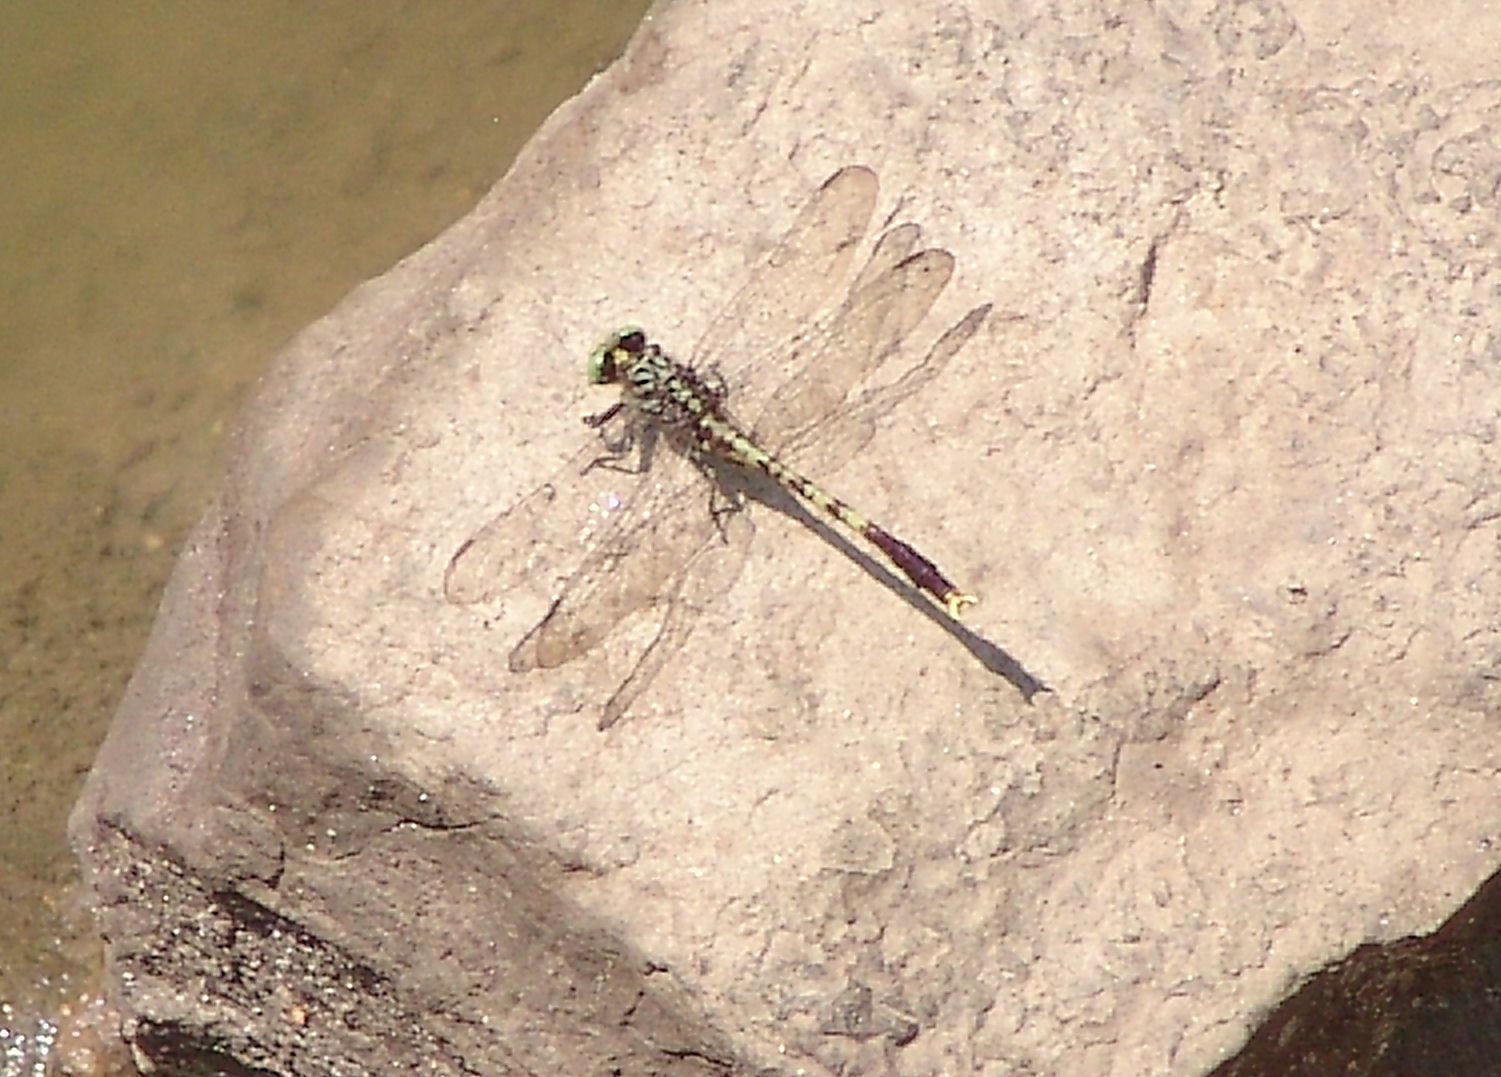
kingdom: Animalia
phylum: Arthropoda
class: Insecta
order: Odonata
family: Gomphidae
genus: Arigomphus
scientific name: Arigomphus maxwelli
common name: Bayou clubtail
